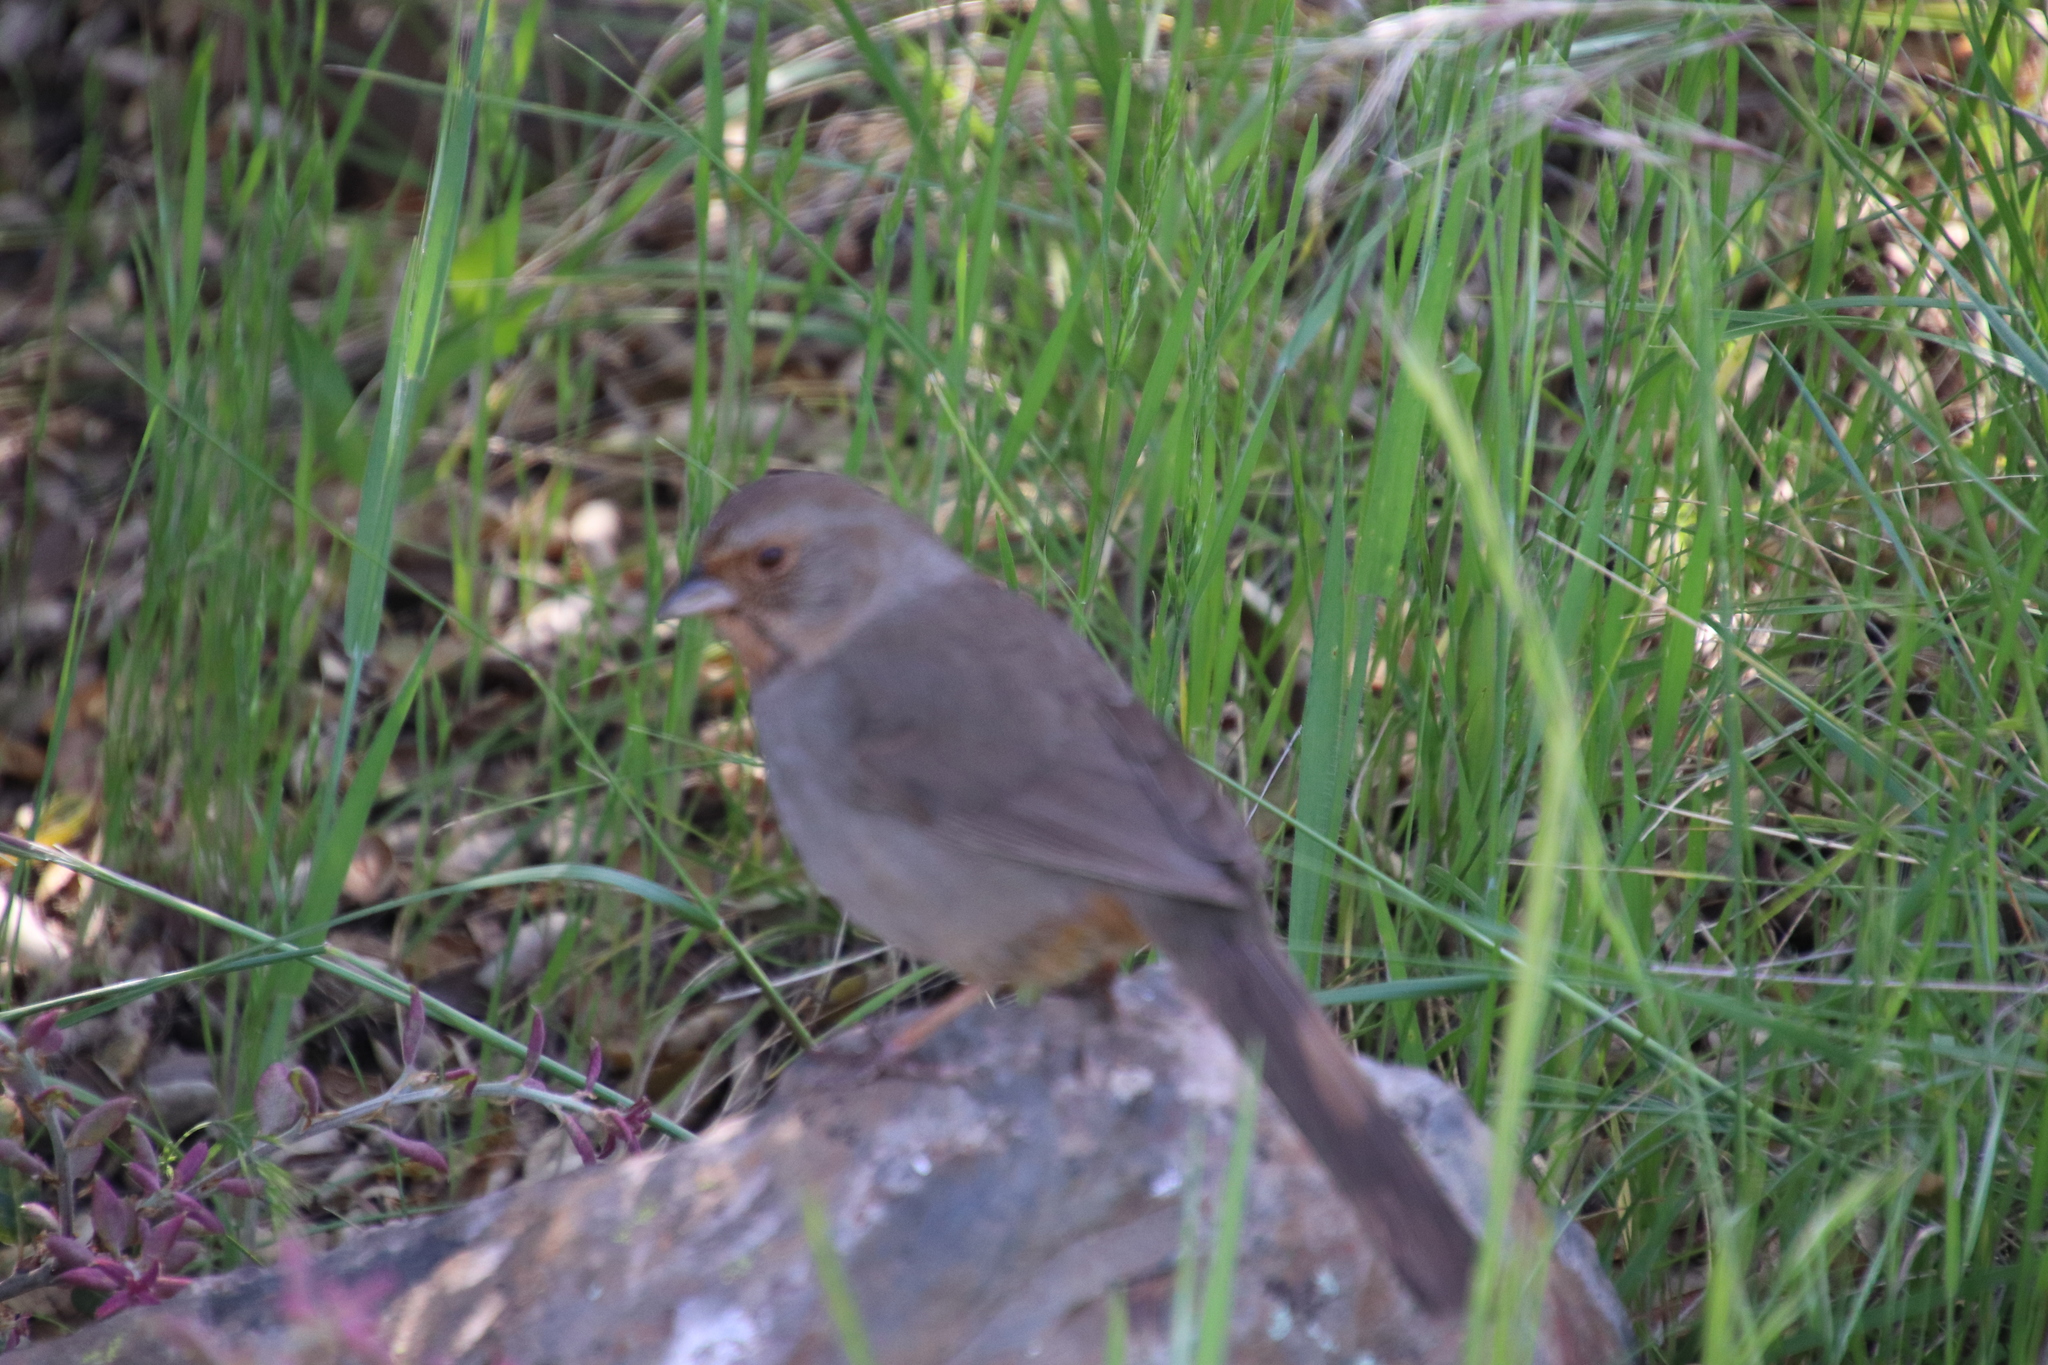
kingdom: Animalia
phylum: Chordata
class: Aves
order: Passeriformes
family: Passerellidae
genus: Melozone
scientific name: Melozone crissalis
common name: California towhee
